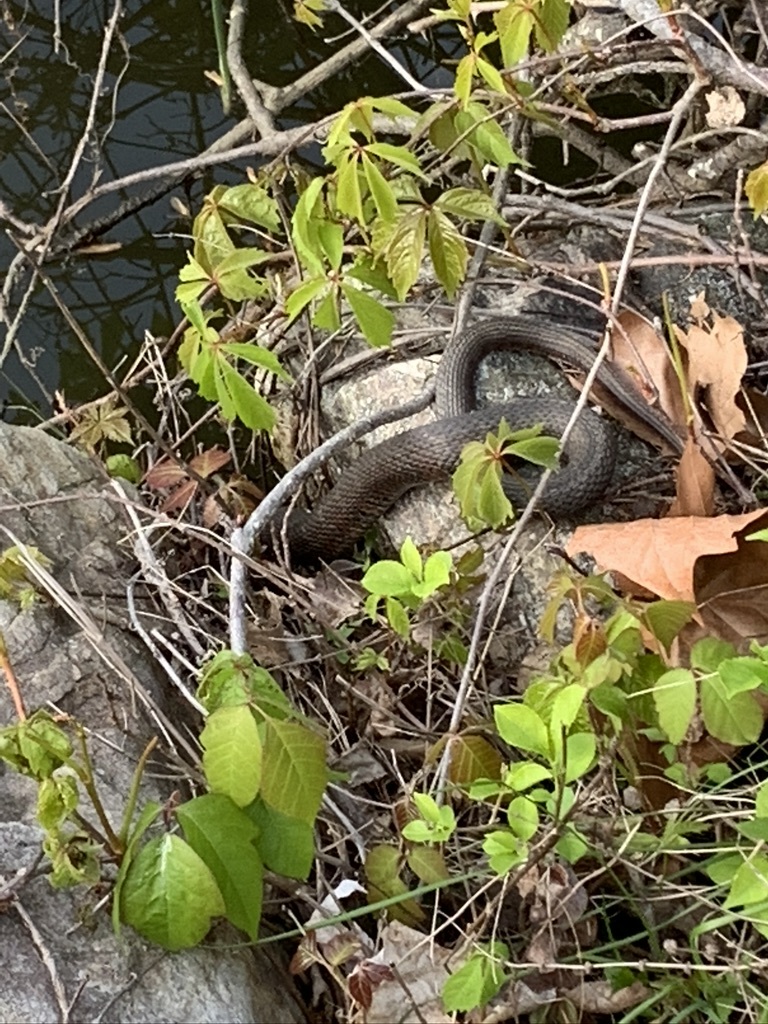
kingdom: Animalia
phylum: Chordata
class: Squamata
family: Colubridae
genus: Nerodia
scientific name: Nerodia sipedon
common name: Northern water snake
